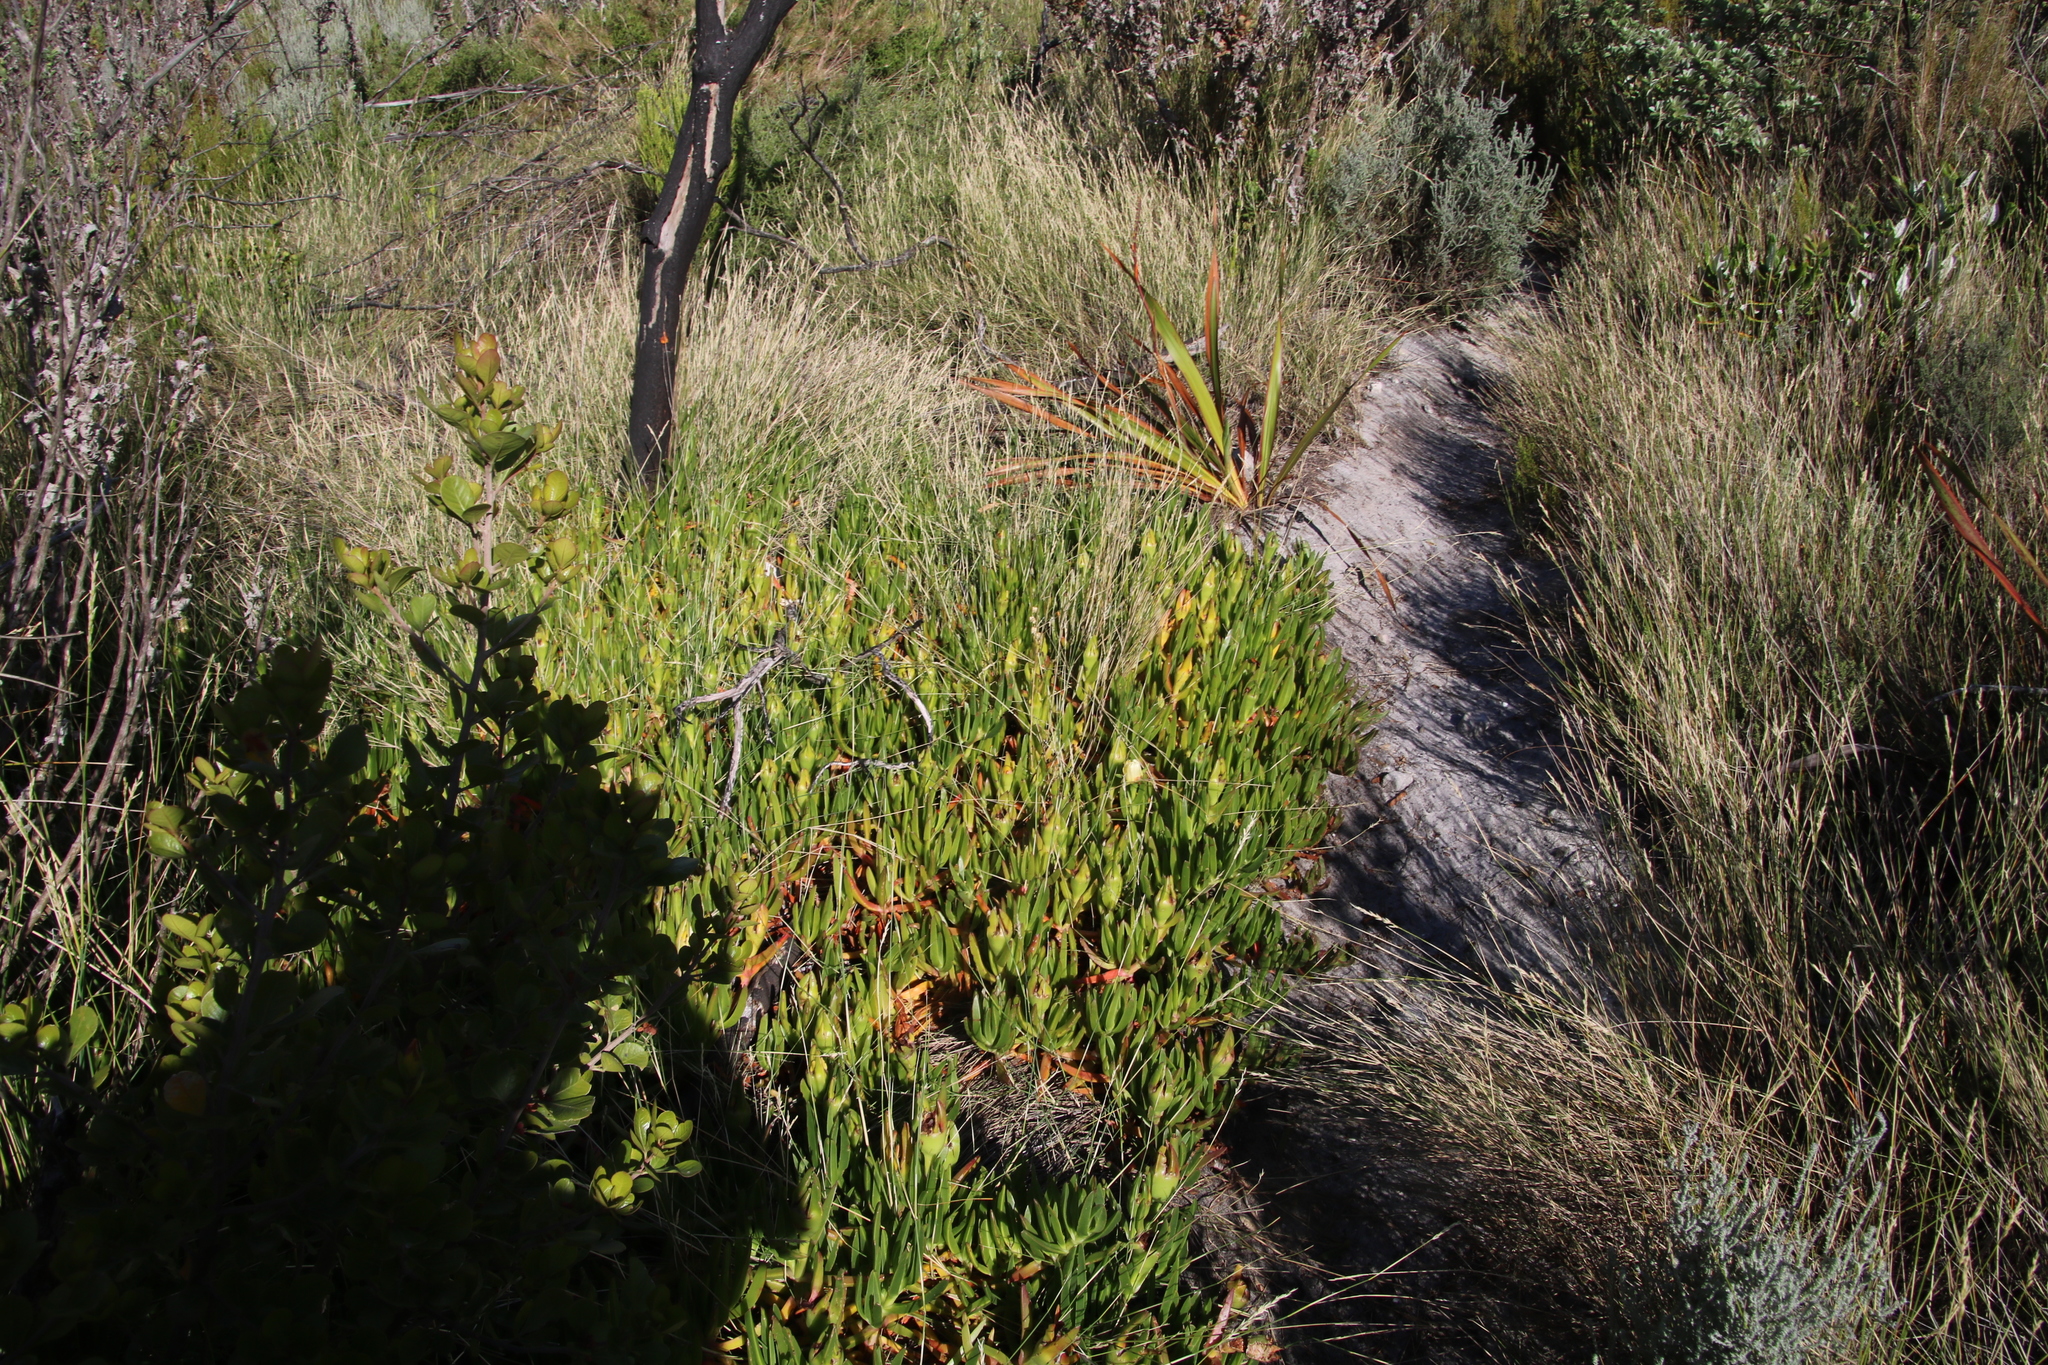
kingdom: Plantae
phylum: Tracheophyta
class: Magnoliopsida
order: Caryophyllales
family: Aizoaceae
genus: Carpobrotus
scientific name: Carpobrotus edulis
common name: Hottentot-fig
